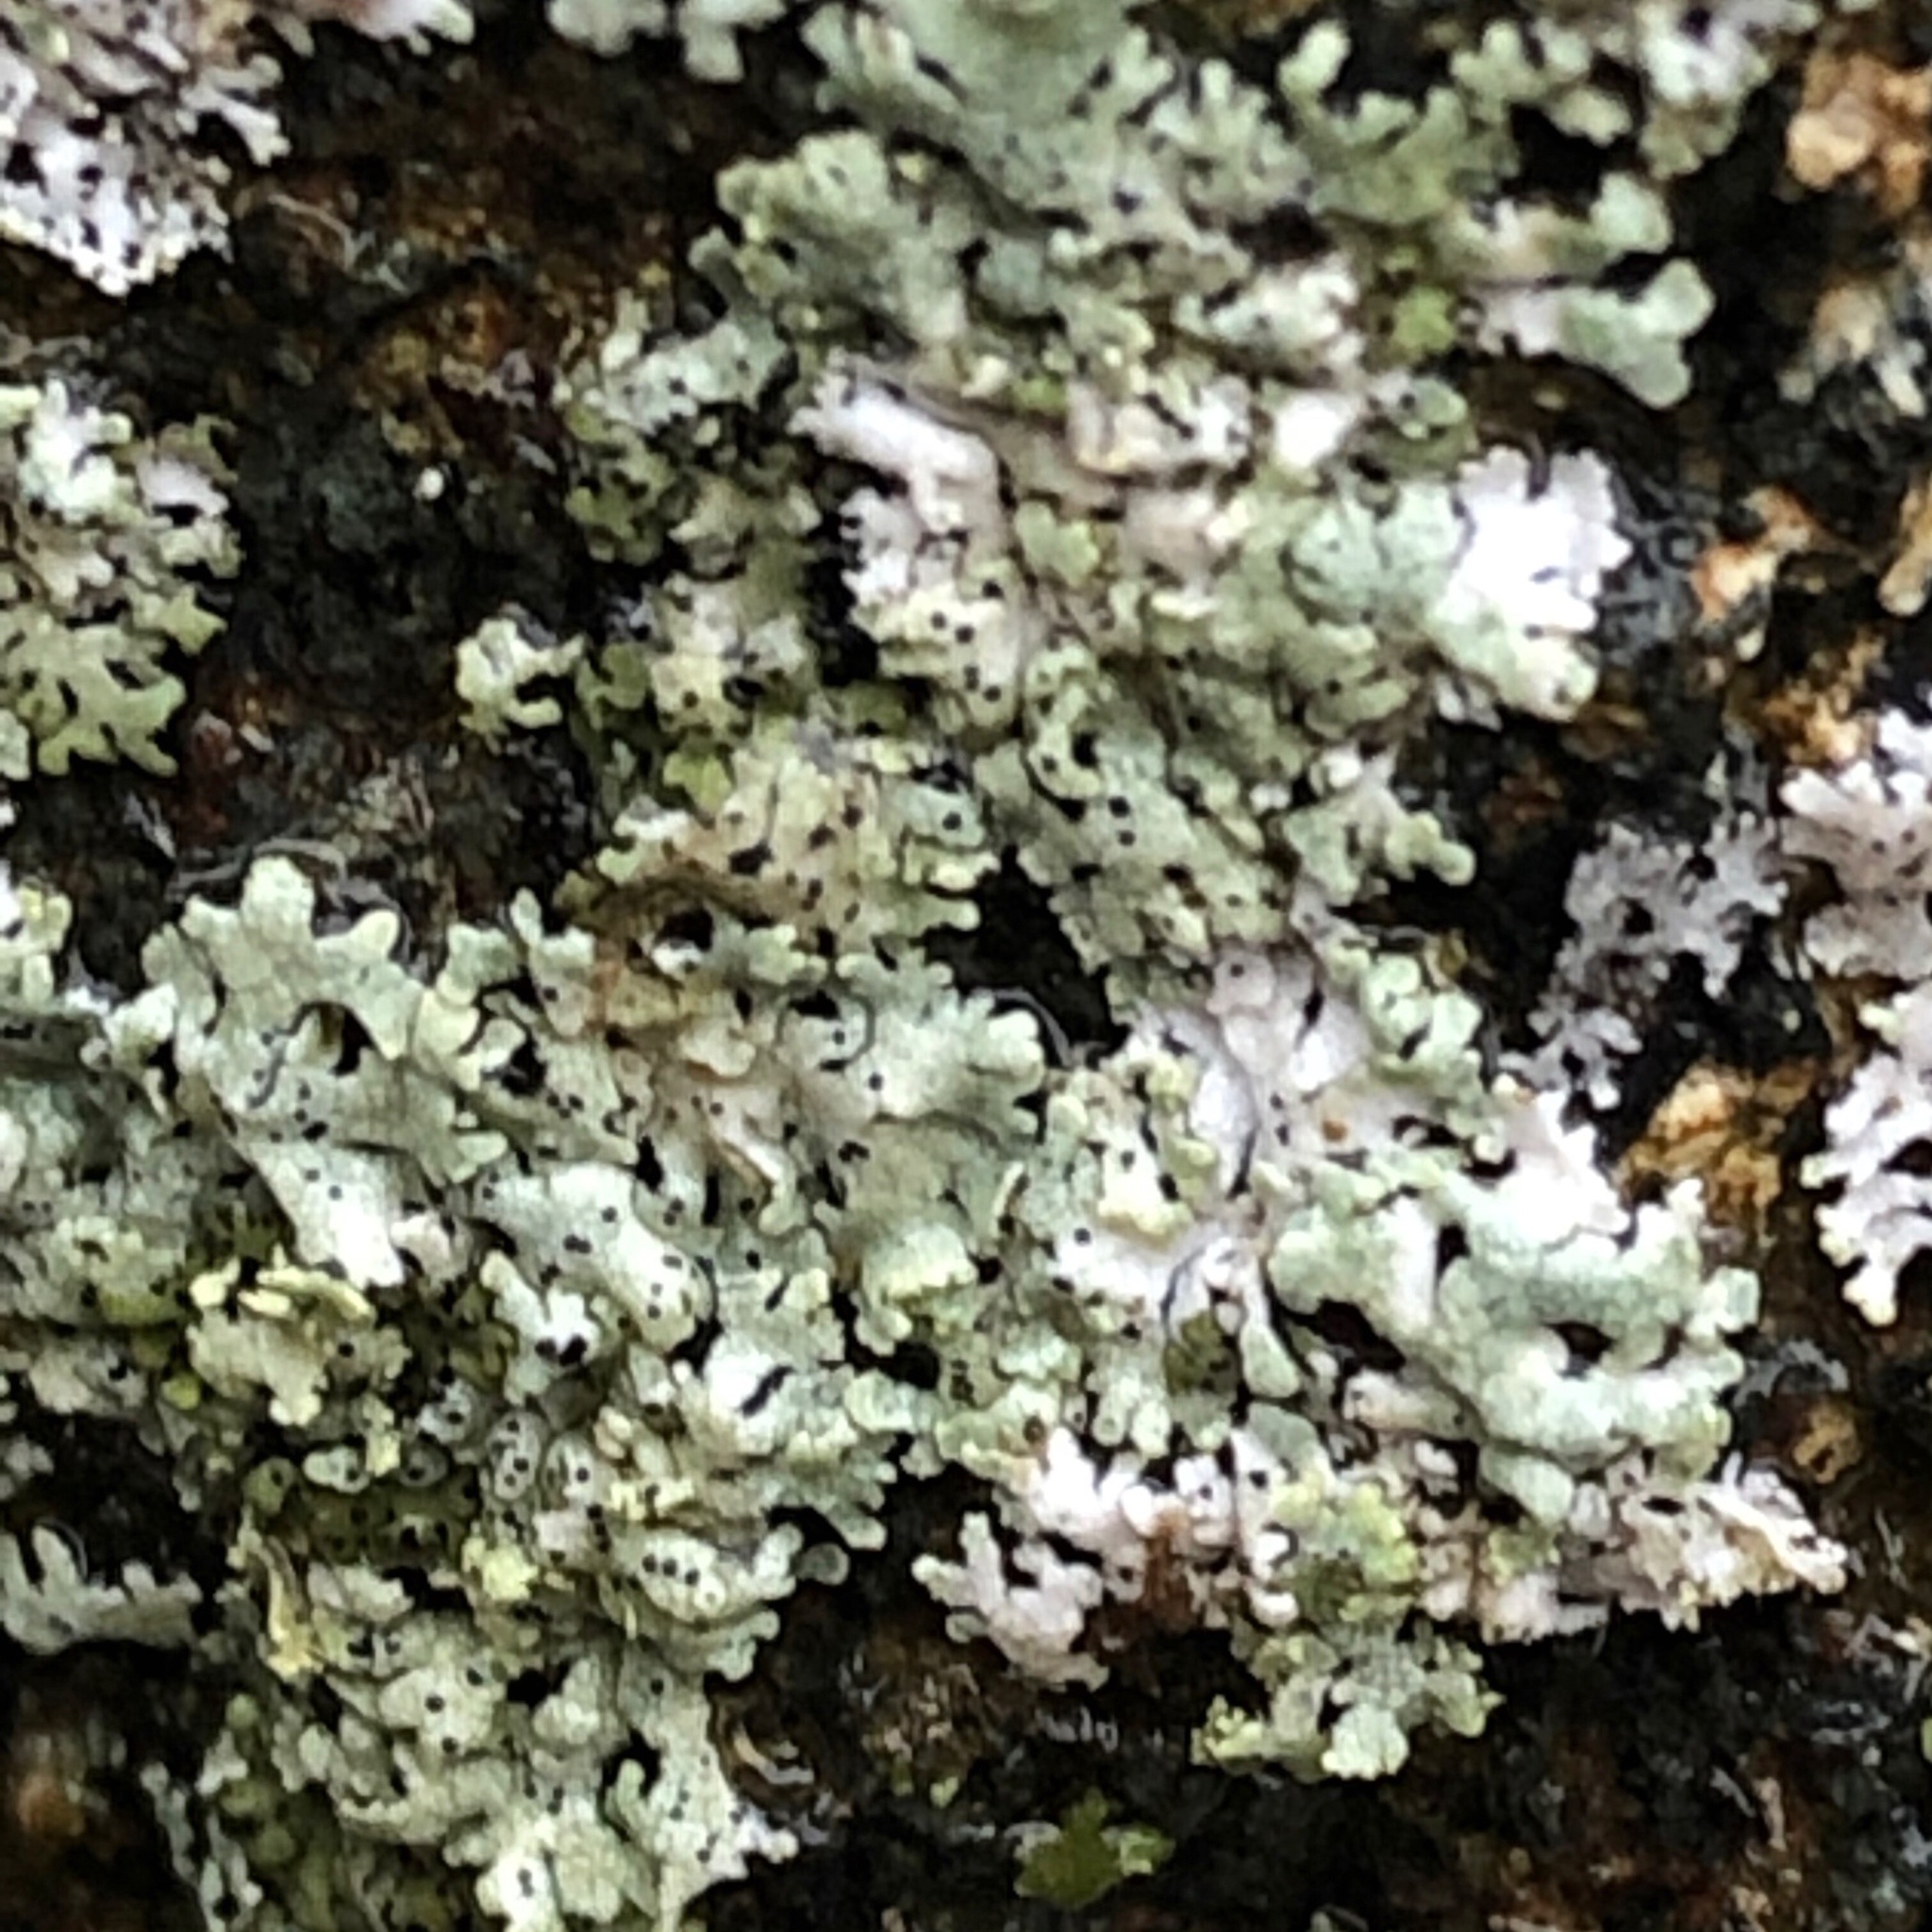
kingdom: Fungi
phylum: Ascomycota
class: Lecanoromycetes
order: Caliciales
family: Physciaceae
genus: Physcia
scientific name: Physcia stellaris
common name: Star rosette lichen
